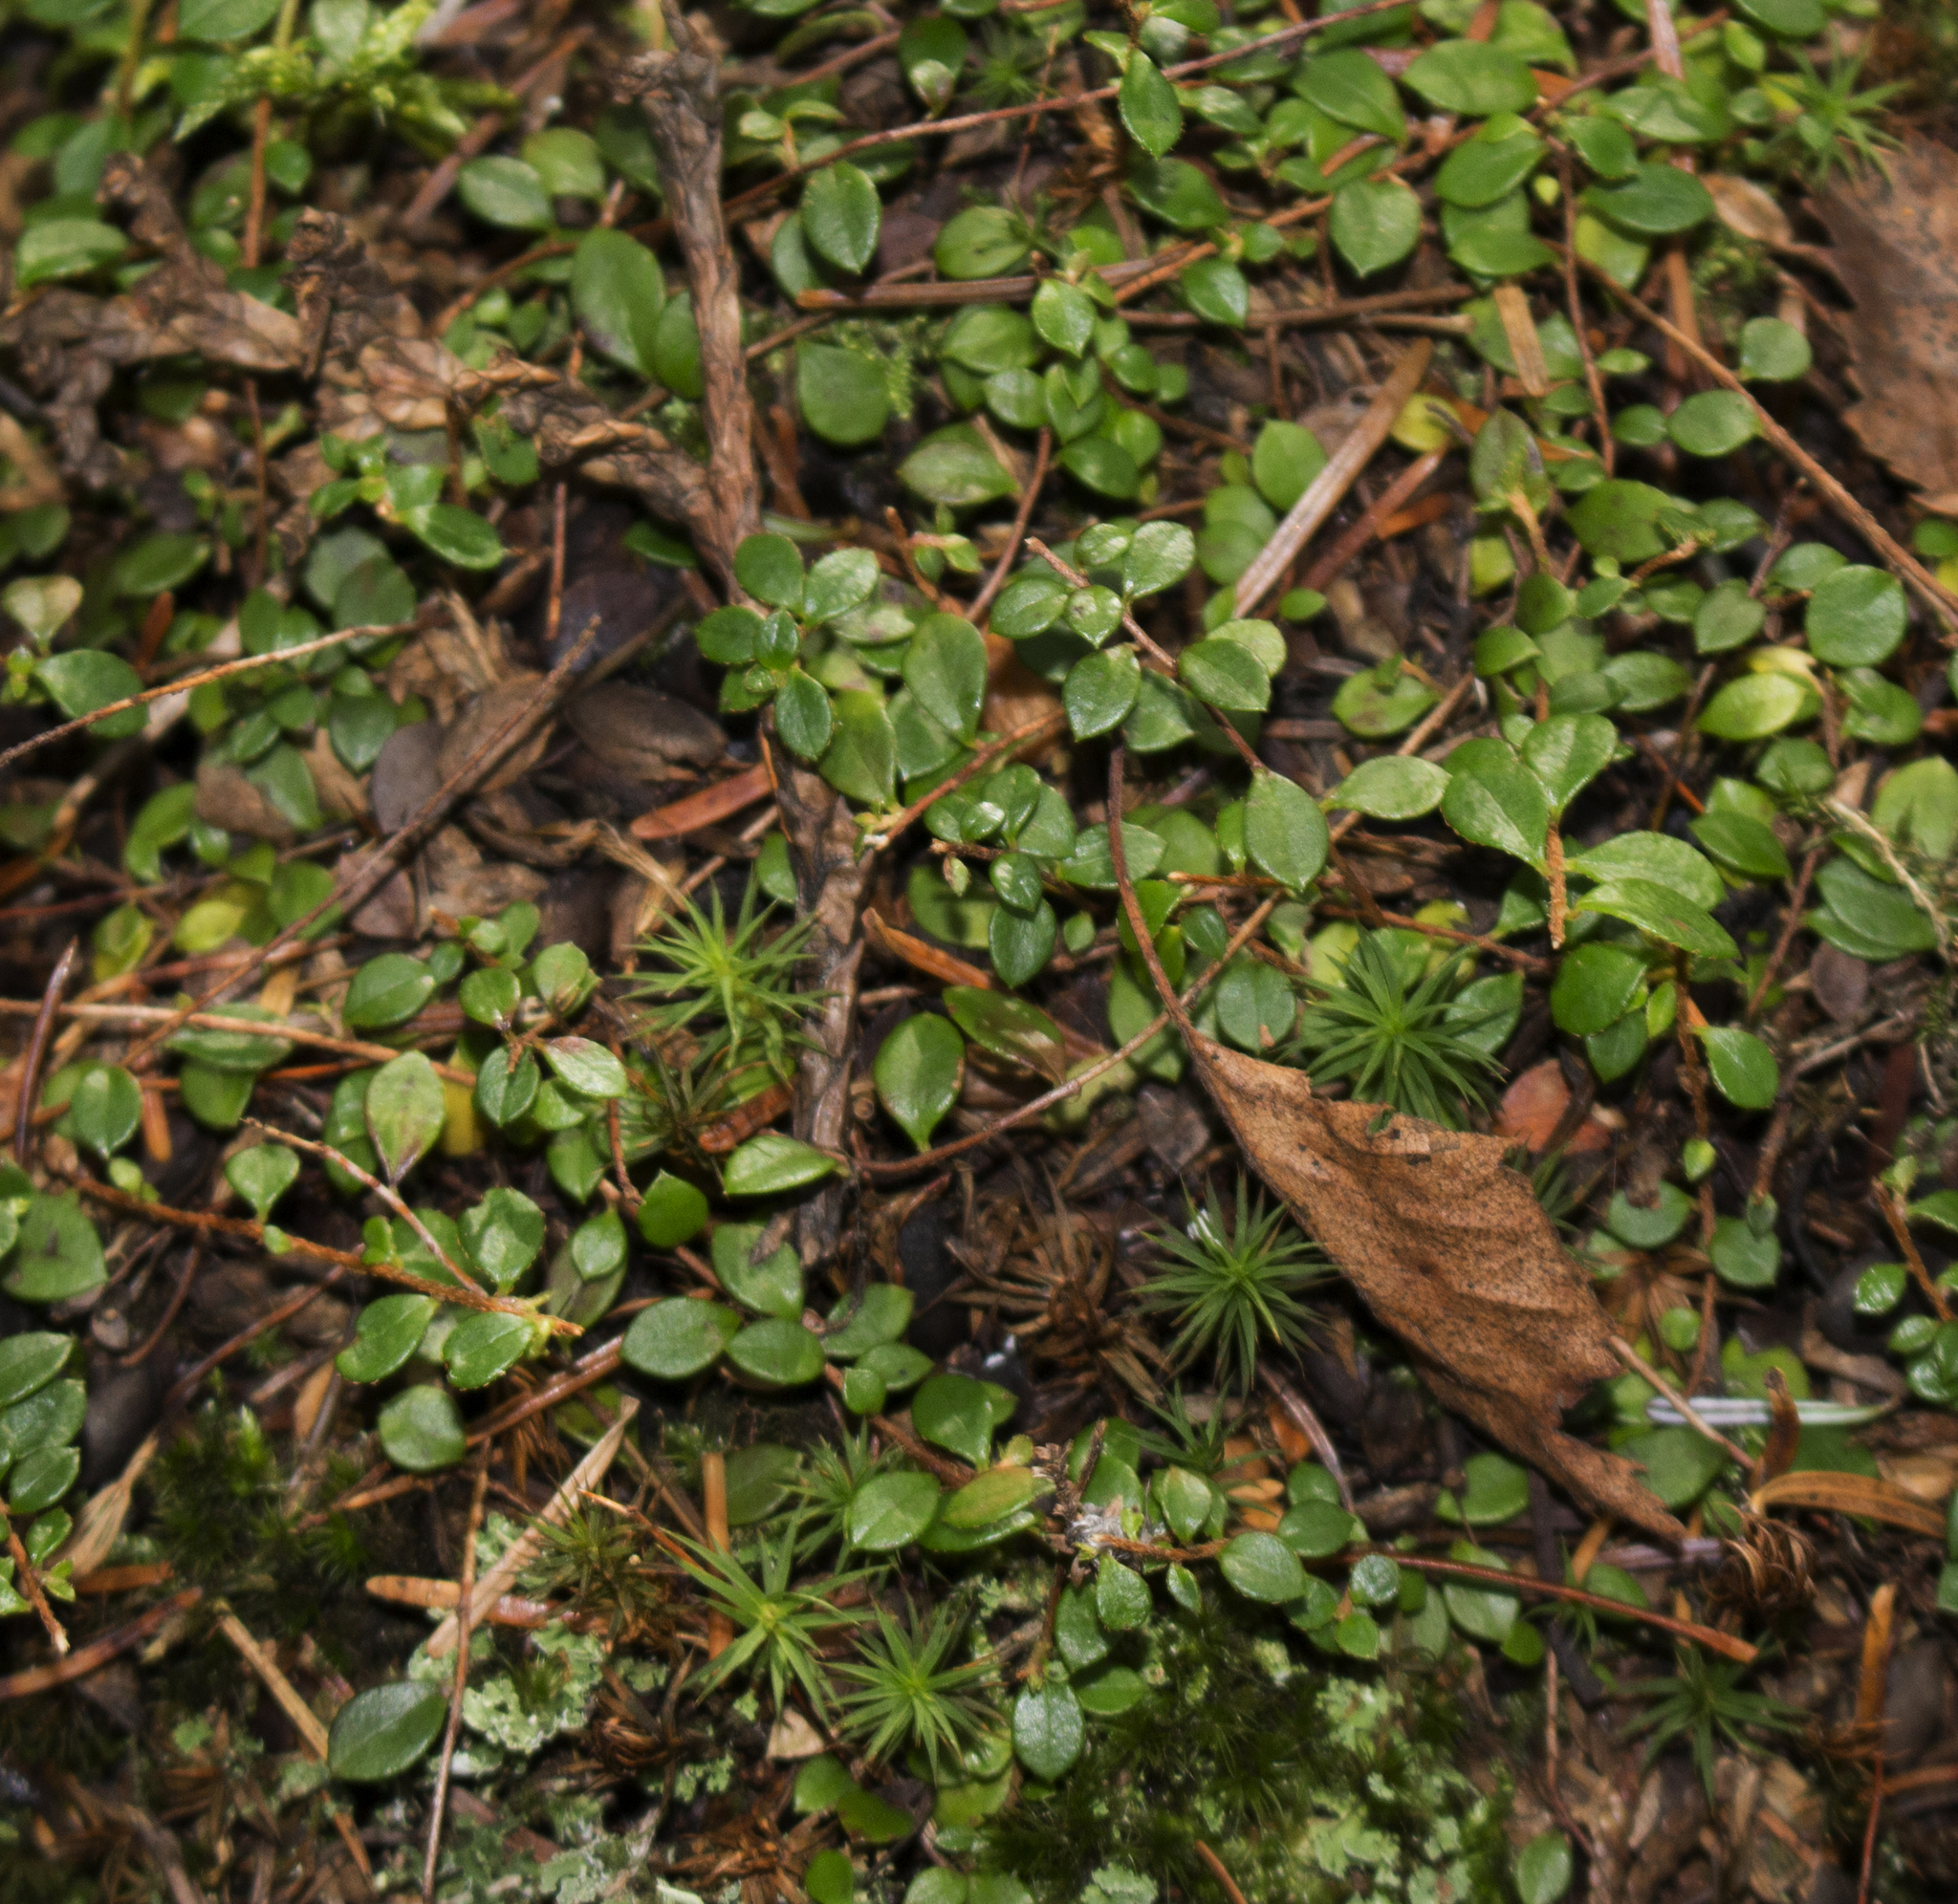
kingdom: Plantae
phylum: Tracheophyta
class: Magnoliopsida
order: Ericales
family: Ericaceae
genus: Gaultheria
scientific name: Gaultheria hispidula
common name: Cancer wintergreen
